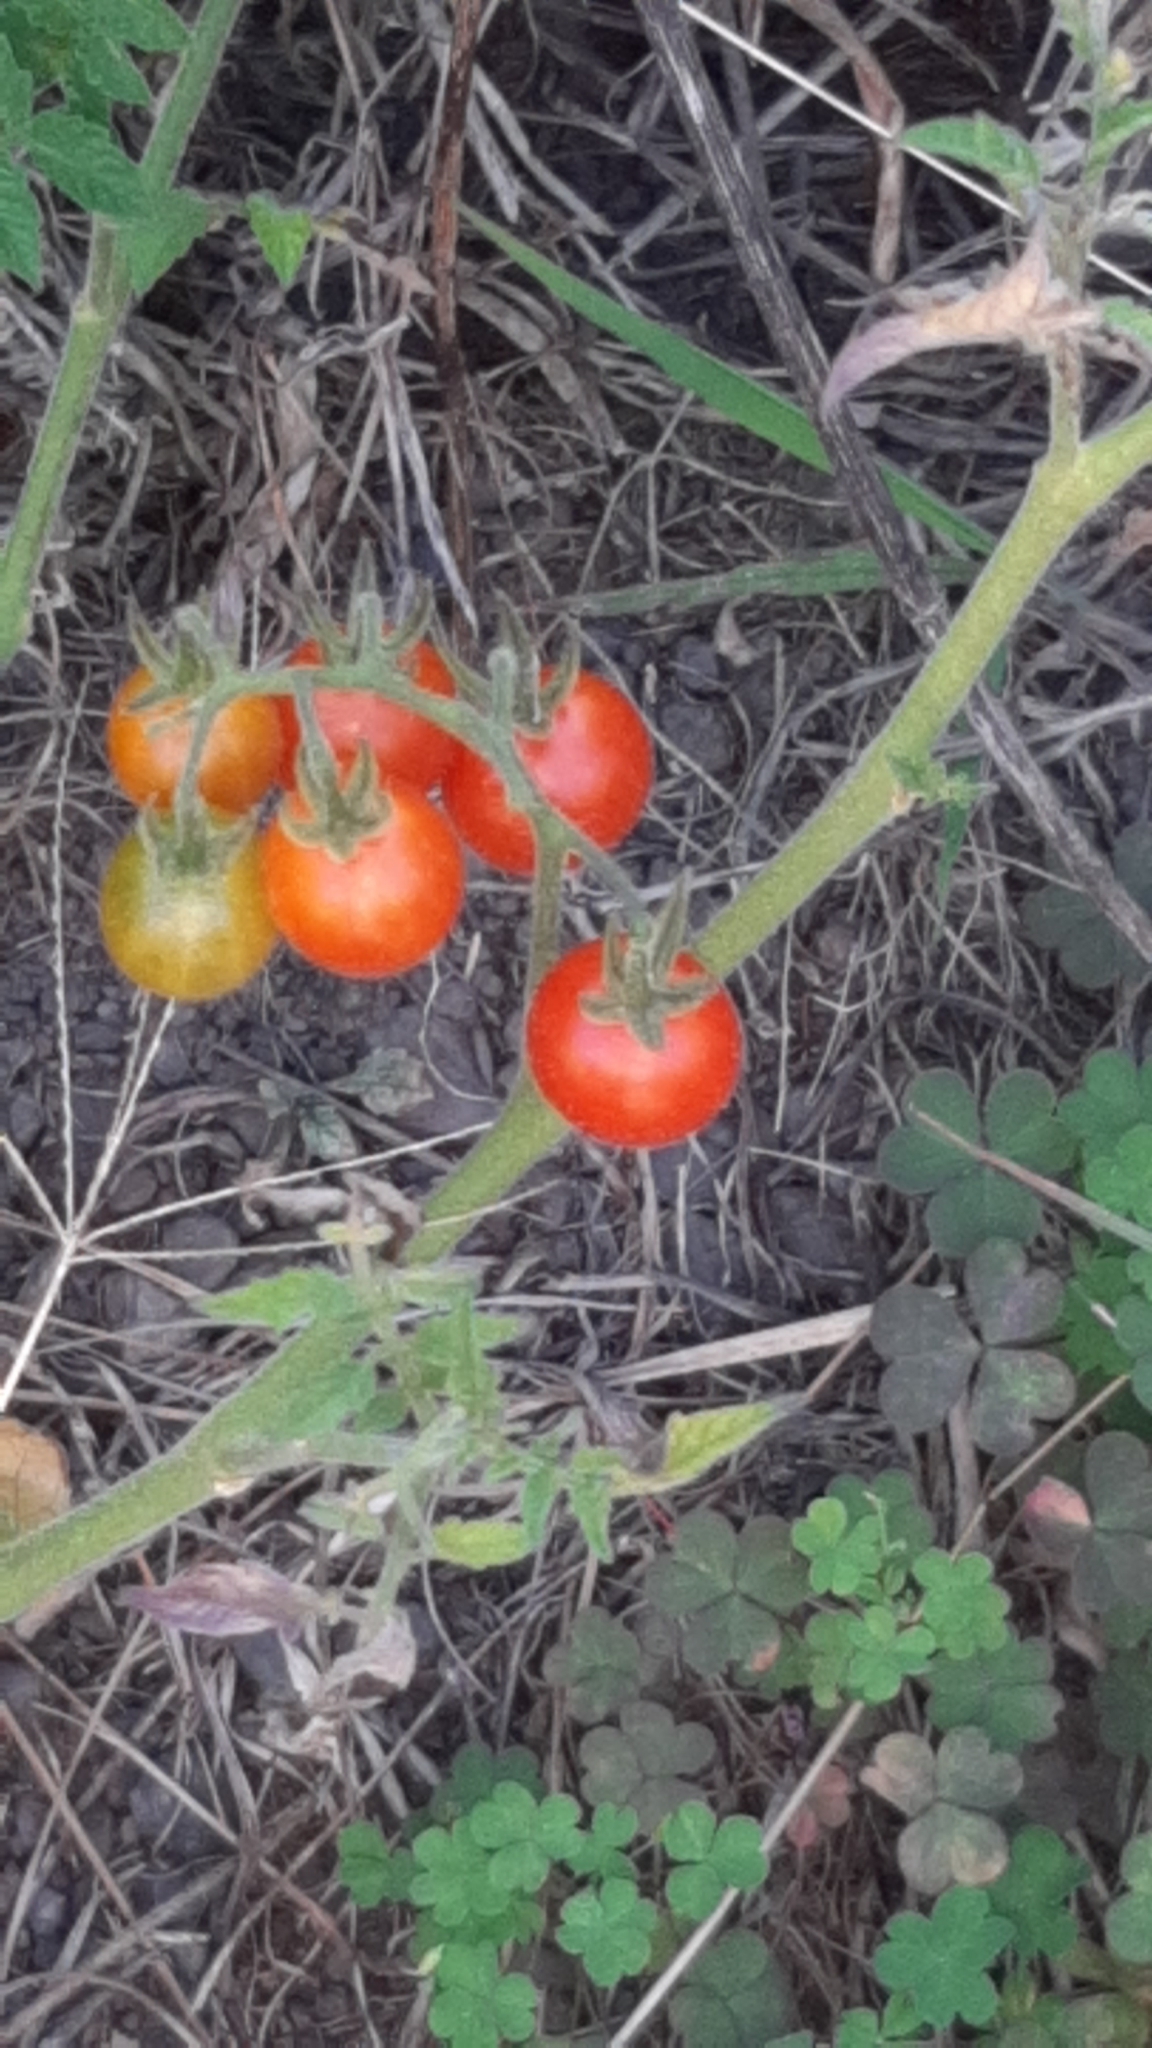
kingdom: Plantae
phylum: Tracheophyta
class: Magnoliopsida
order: Solanales
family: Solanaceae
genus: Solanum
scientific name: Solanum lycopersicum
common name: Garden tomato
